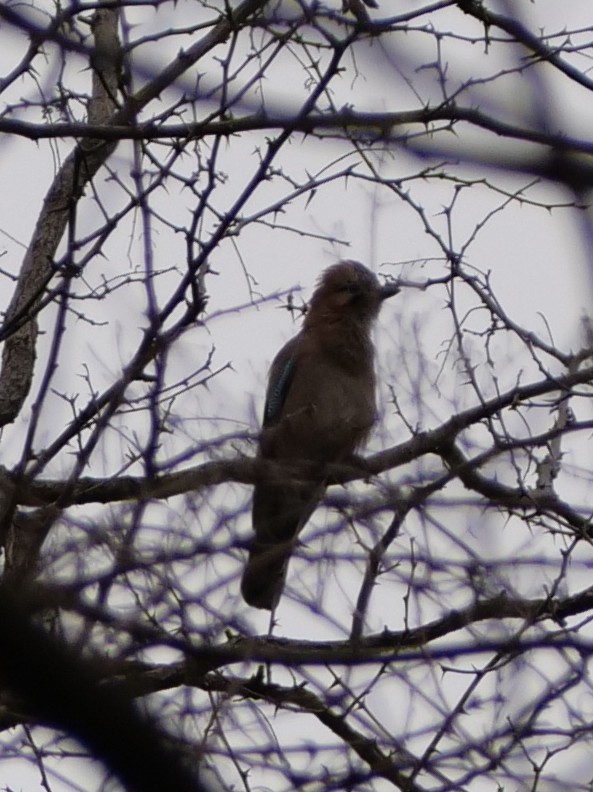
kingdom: Animalia
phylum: Chordata
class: Aves
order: Passeriformes
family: Corvidae
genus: Garrulus
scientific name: Garrulus glandarius
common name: Eurasian jay
